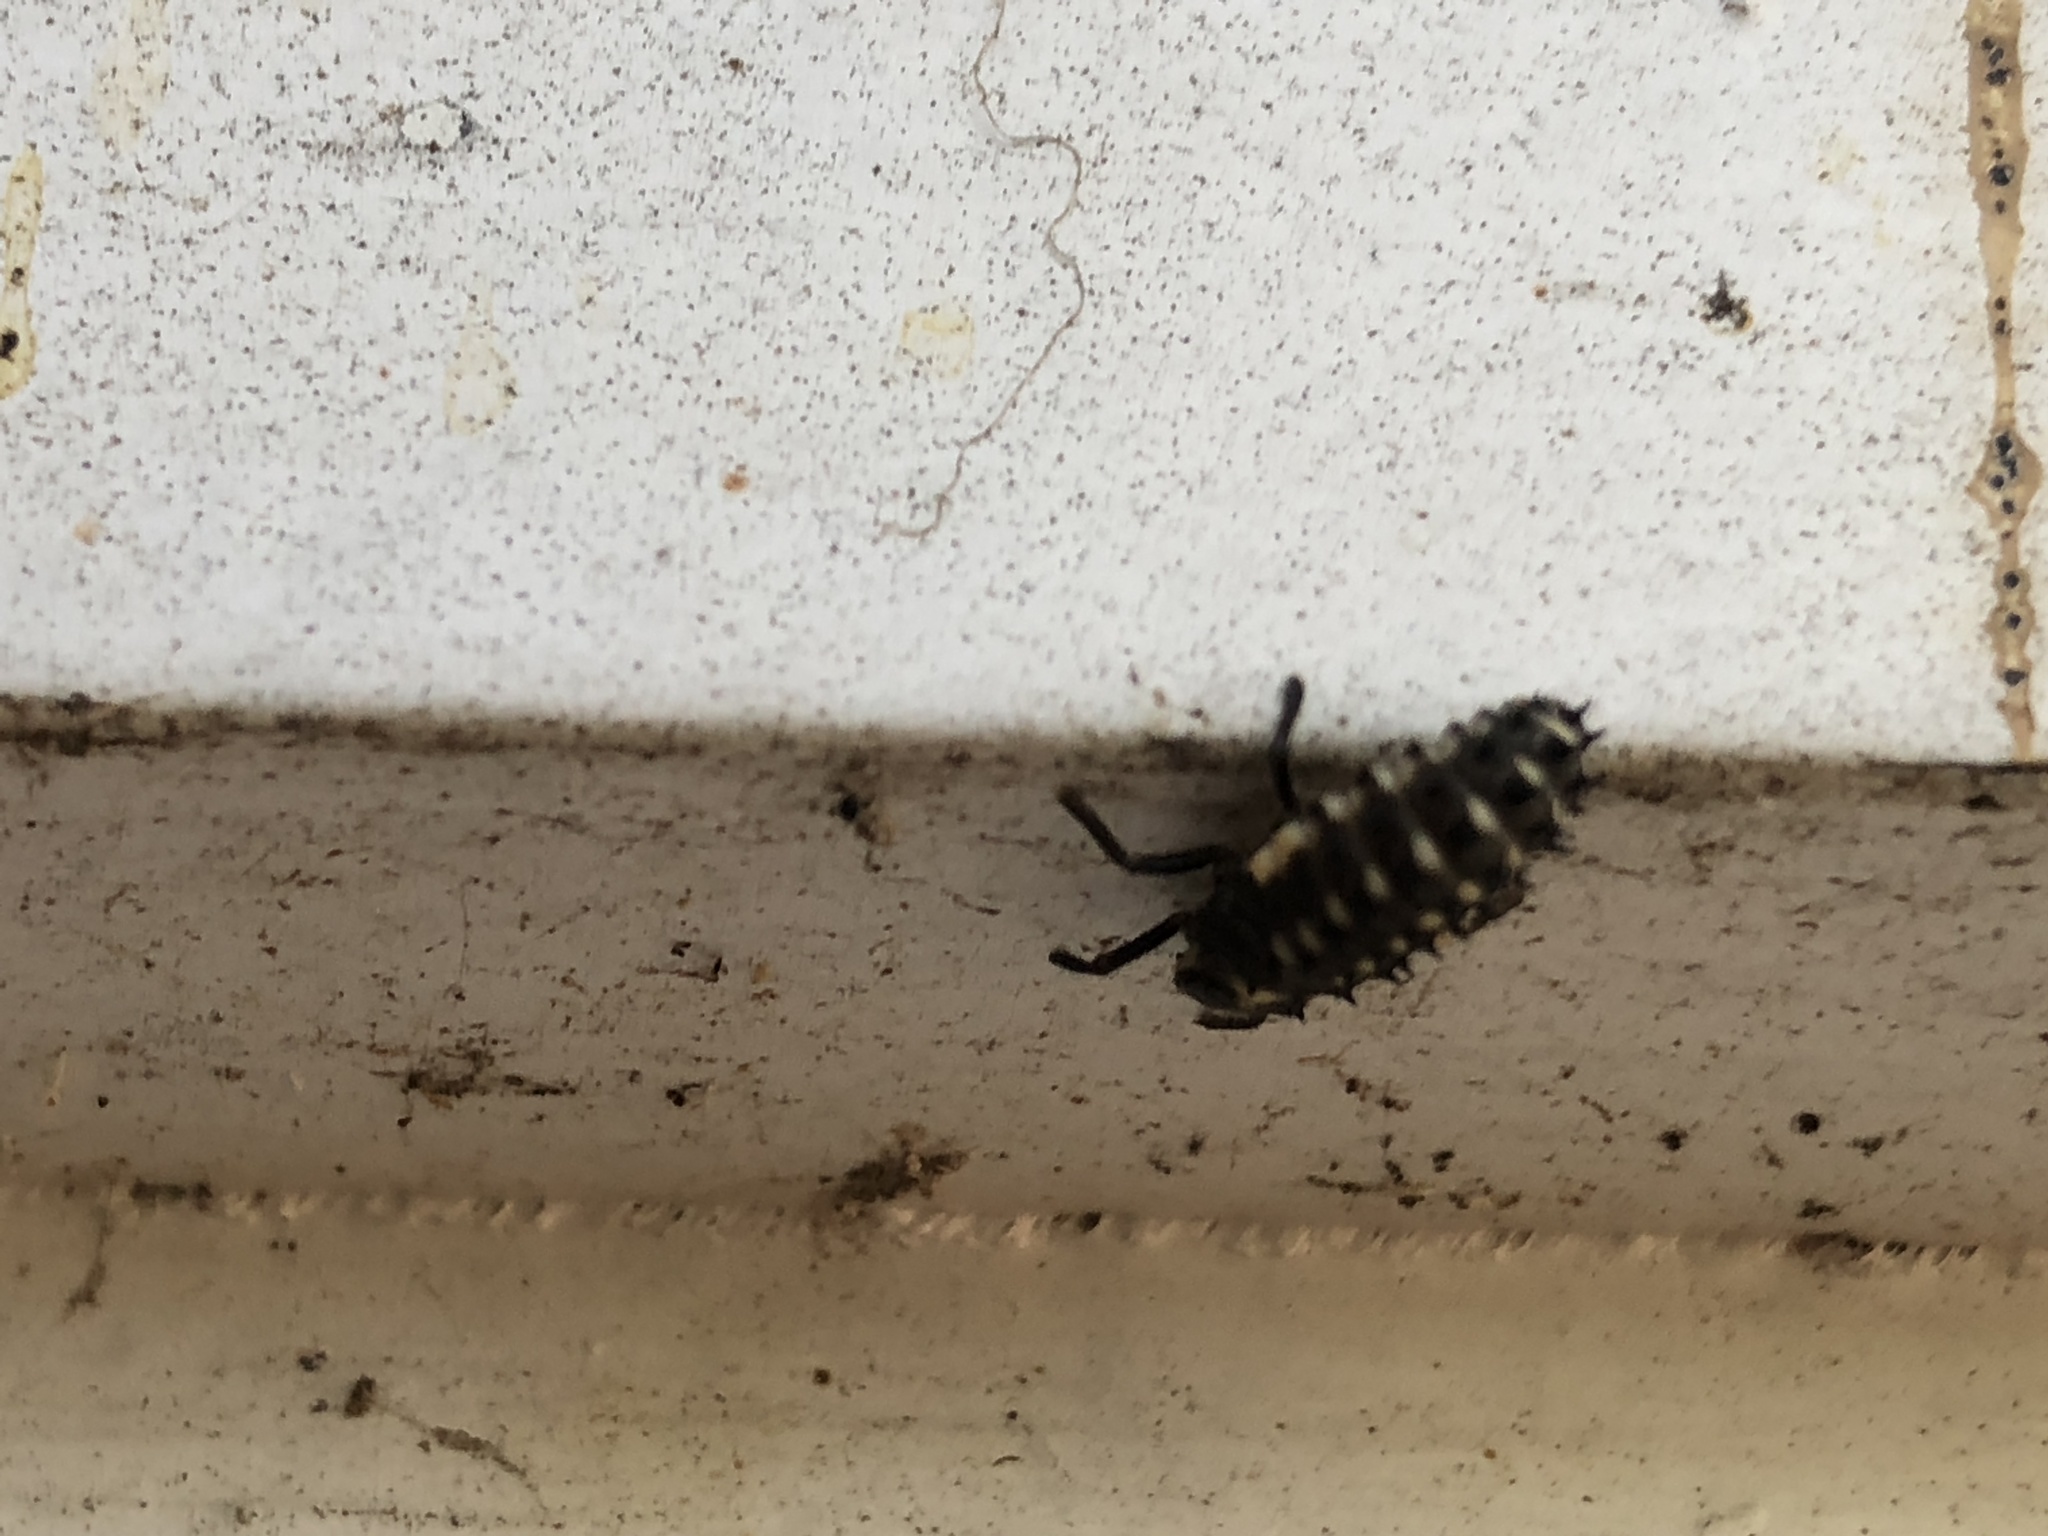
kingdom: Animalia
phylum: Arthropoda
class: Insecta
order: Coleoptera
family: Coccinellidae
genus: Harmonia
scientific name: Harmonia axyridis
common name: Harlequin ladybird
